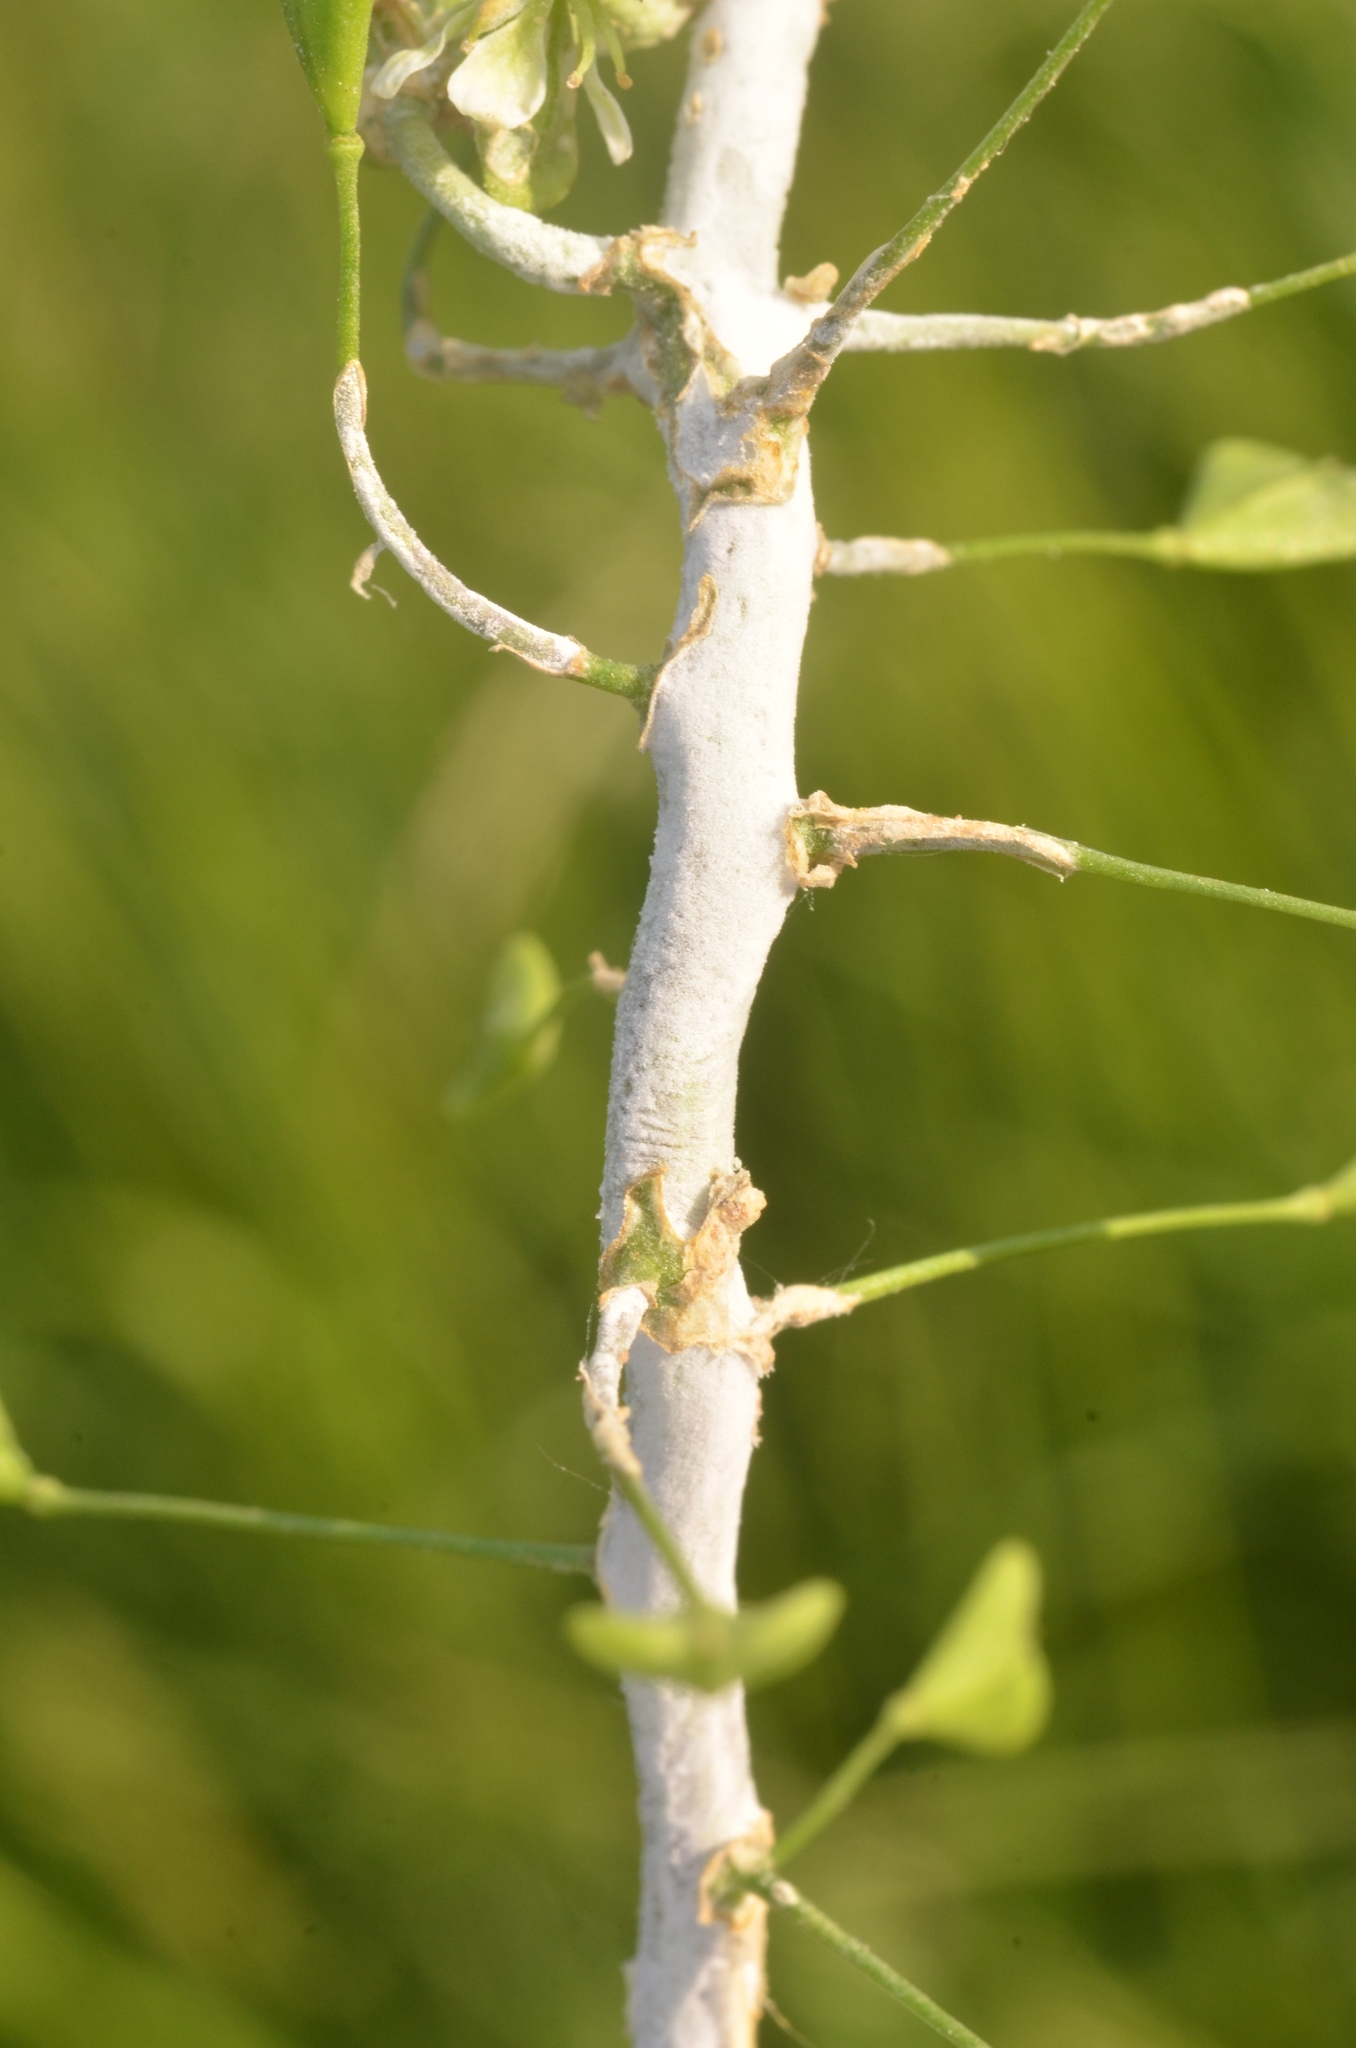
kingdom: Chromista
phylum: Oomycota
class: Peronosporea
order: Albuginales
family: Albuginaceae
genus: Albugo
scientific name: Albugo candida
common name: Crucifer white blister
